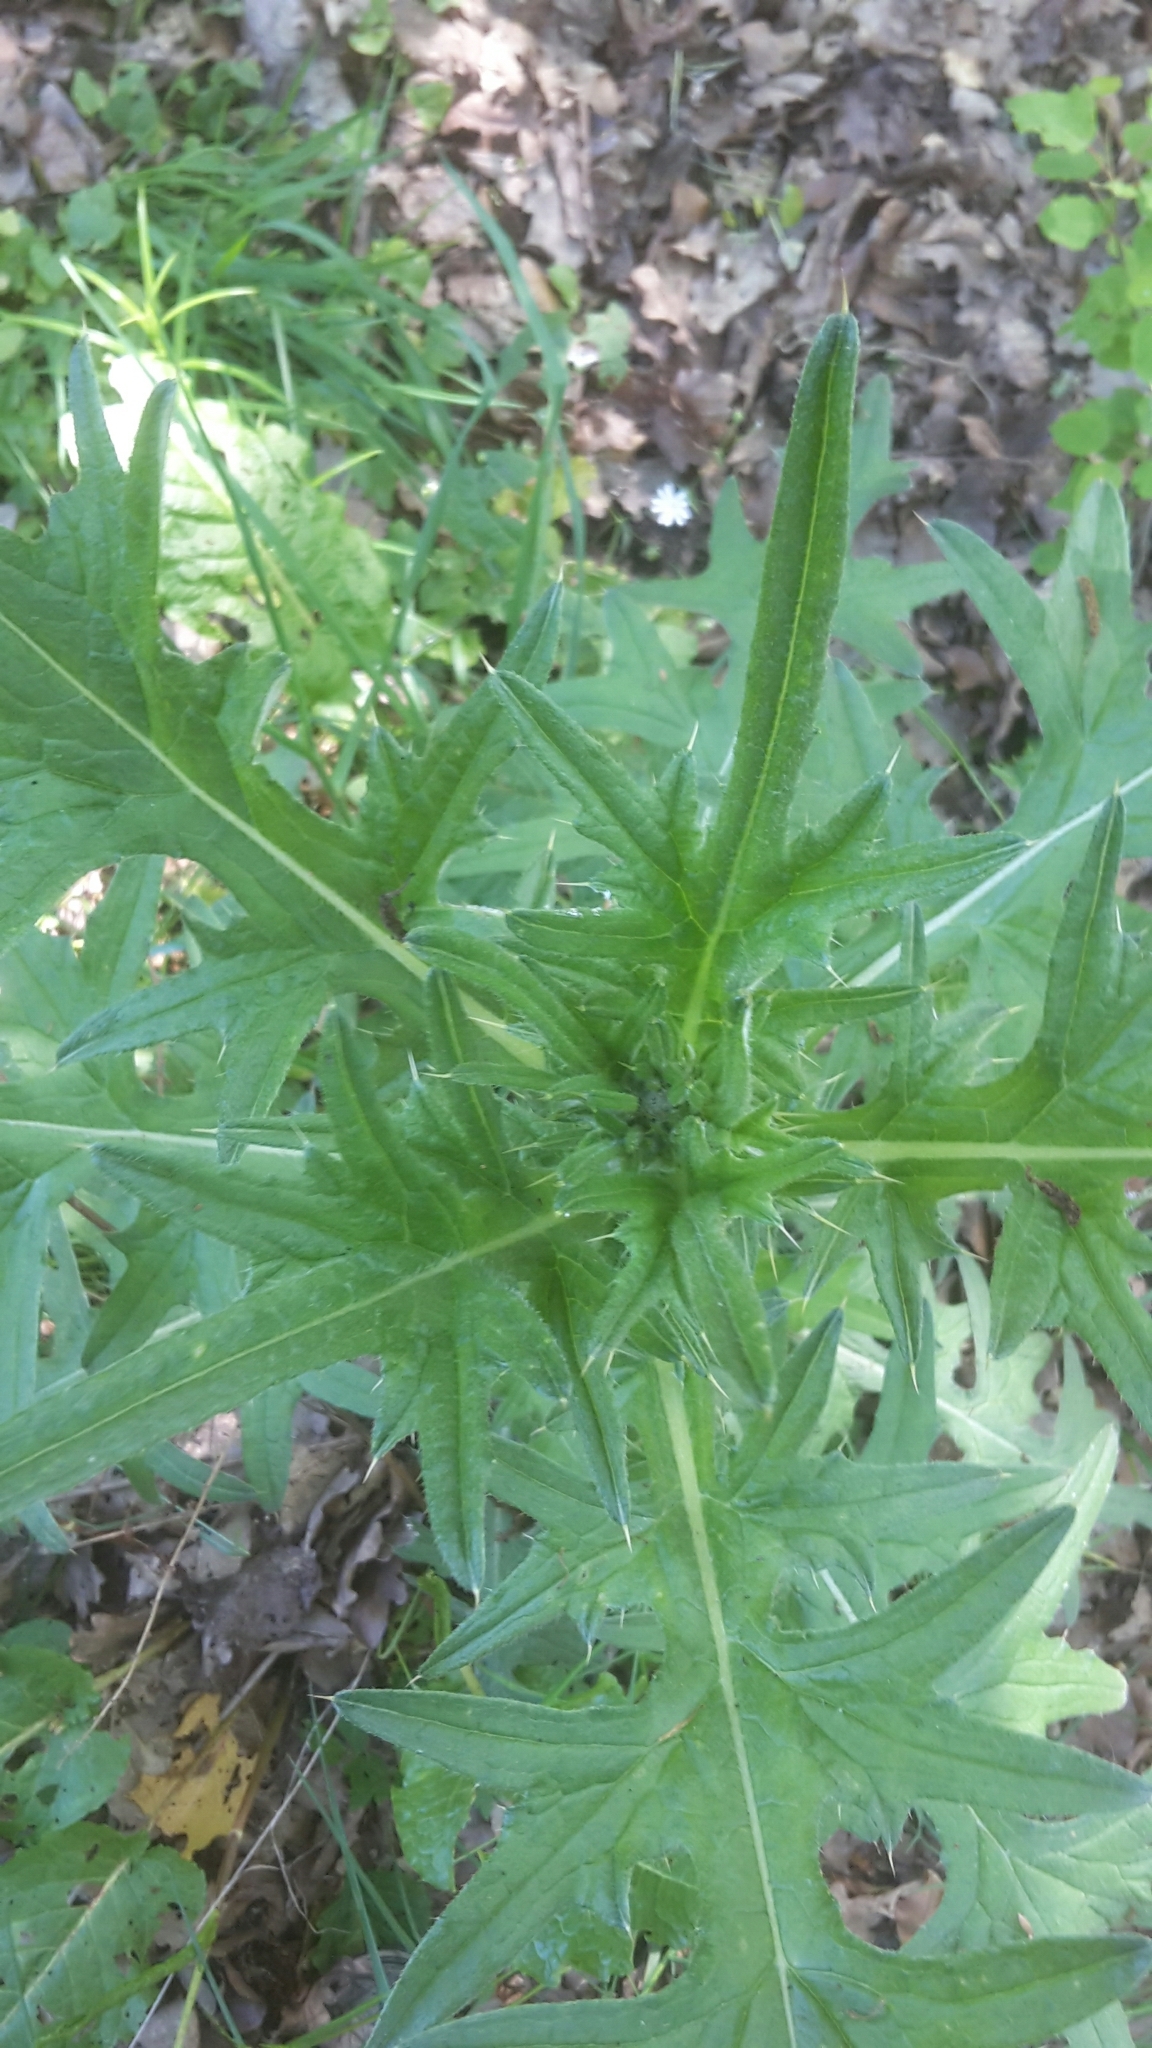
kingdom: Plantae
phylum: Tracheophyta
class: Magnoliopsida
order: Asterales
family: Asteraceae
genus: Cirsium
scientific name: Cirsium vulgare
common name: Bull thistle
